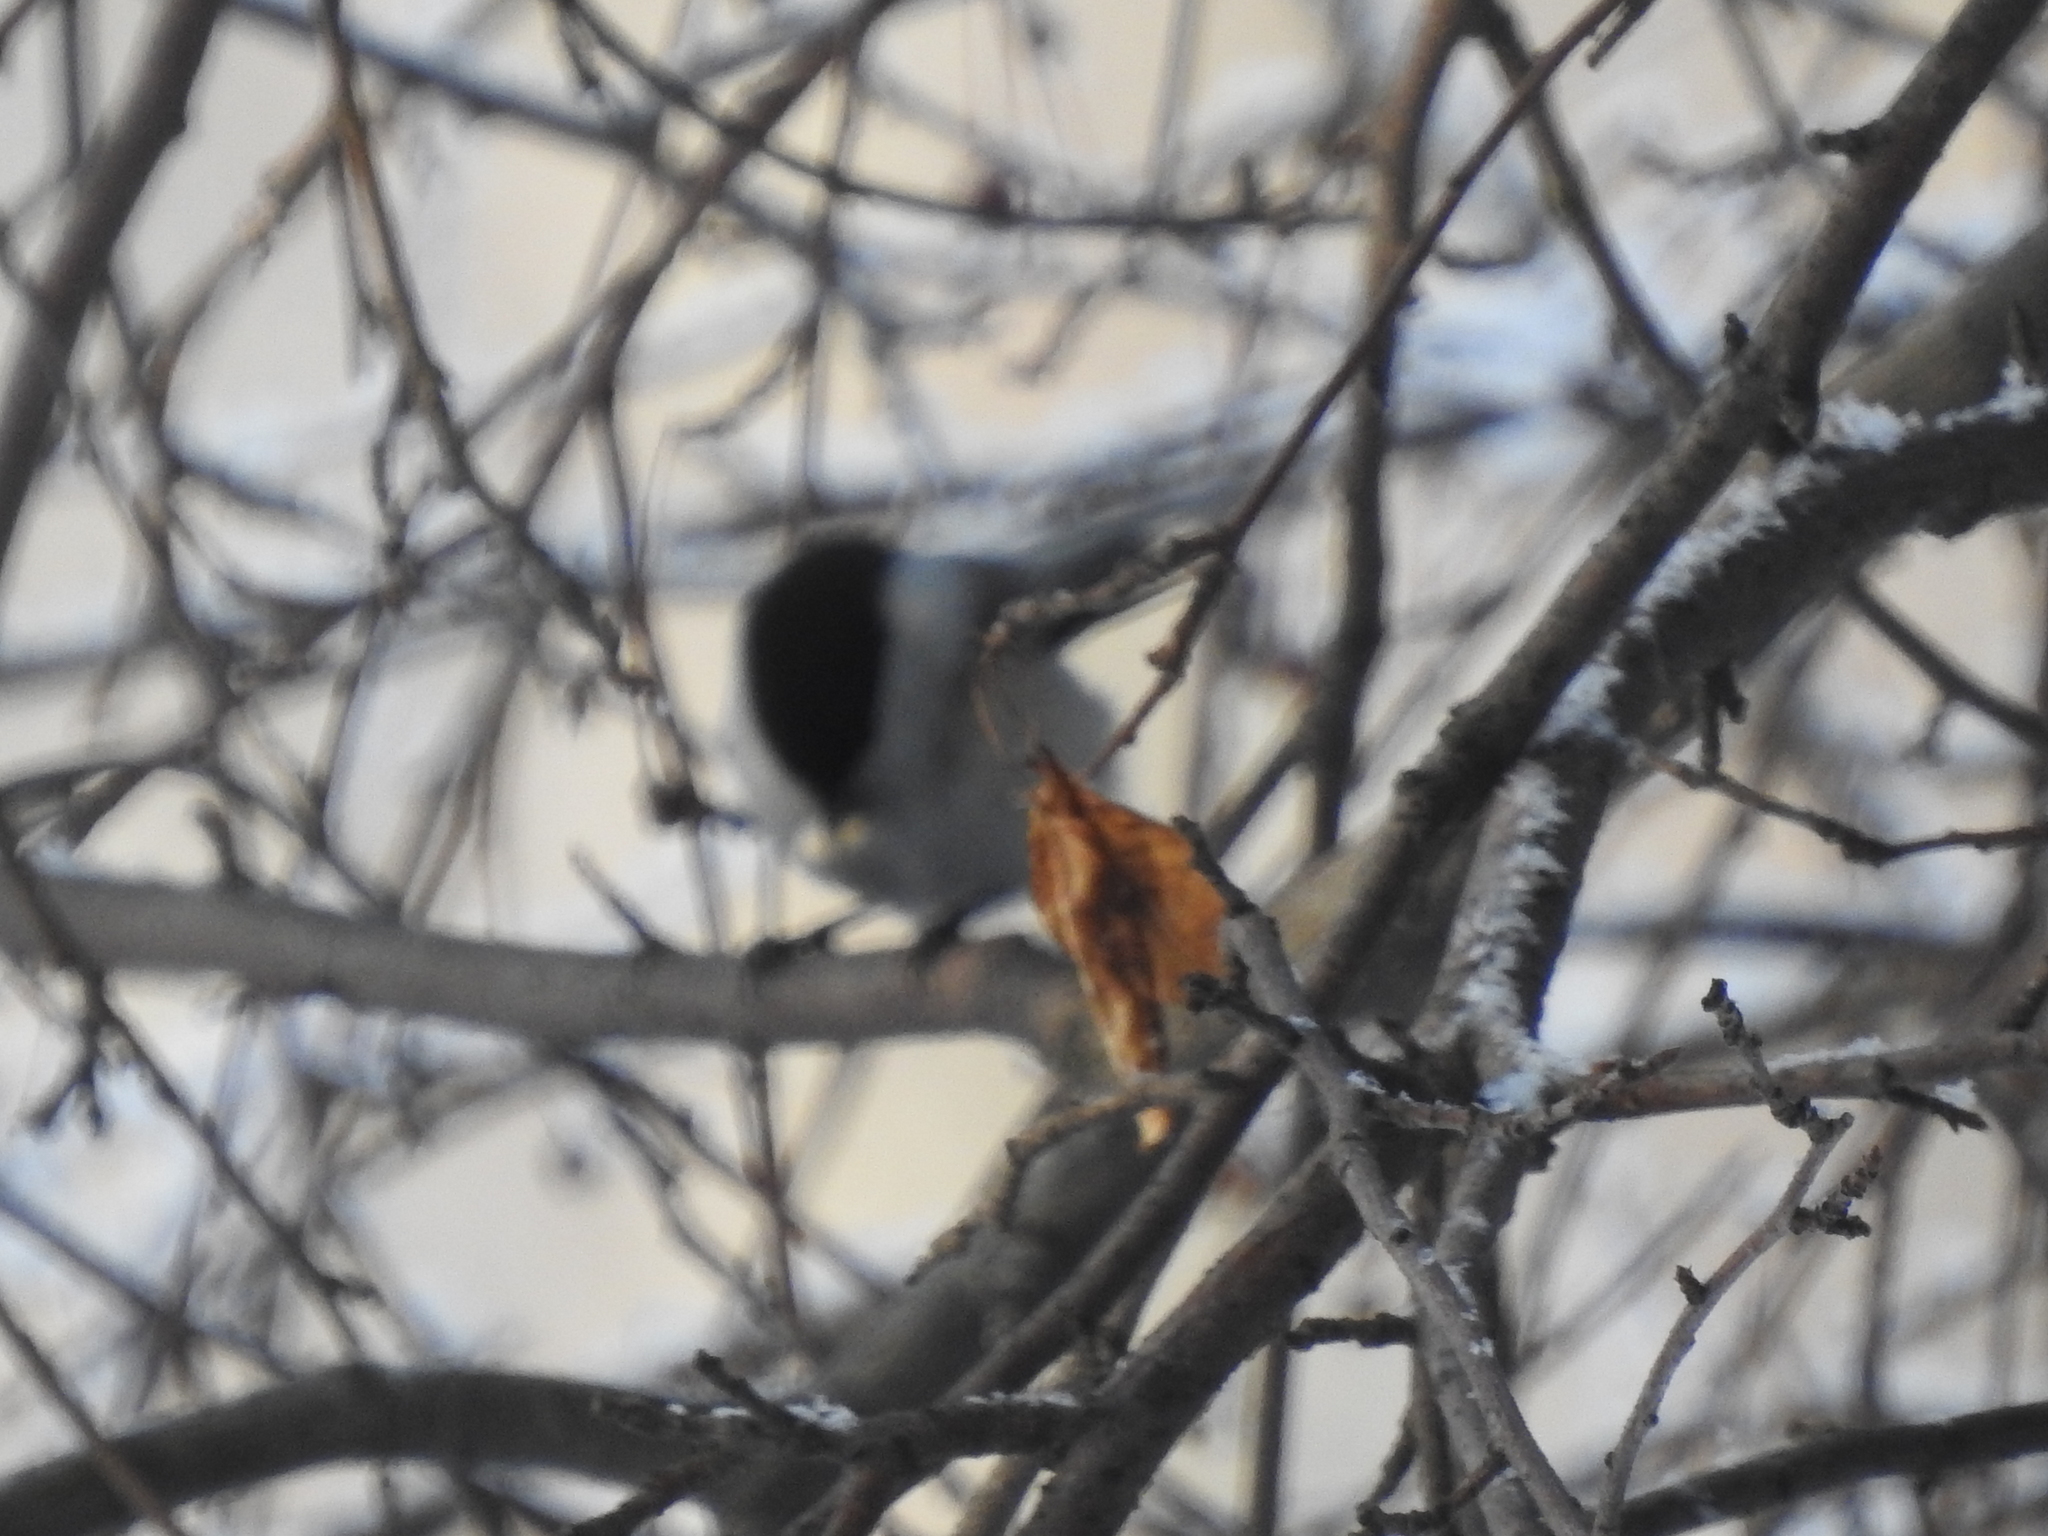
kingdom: Animalia
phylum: Chordata
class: Aves
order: Passeriformes
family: Paridae
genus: Poecile
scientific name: Poecile montanus
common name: Willow tit
